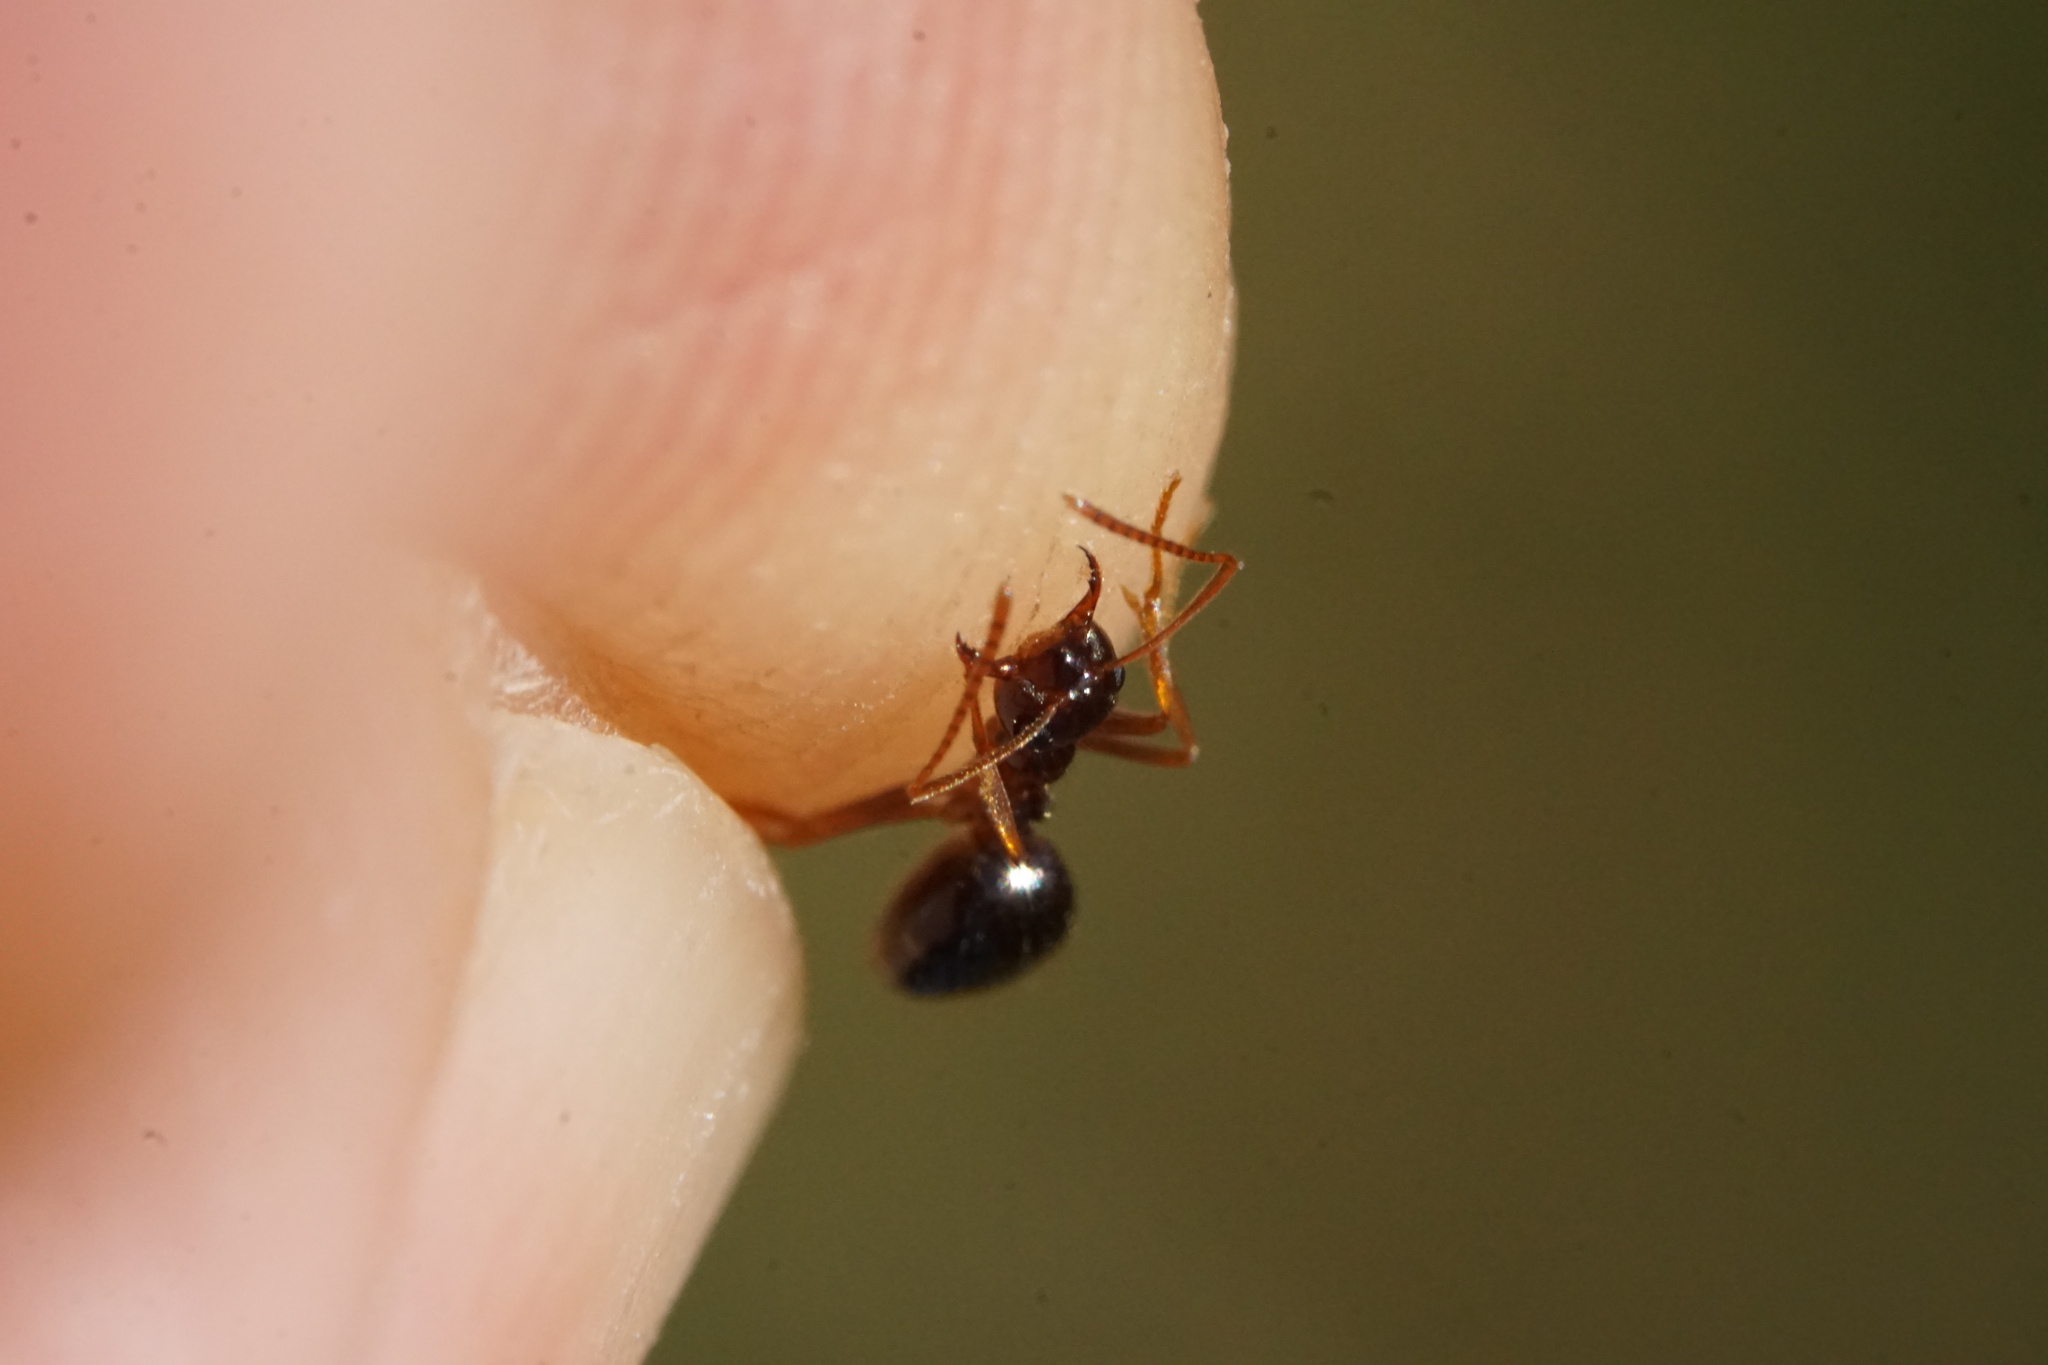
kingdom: Animalia
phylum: Arthropoda
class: Insecta
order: Hymenoptera
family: Formicidae
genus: Prenolepis
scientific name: Prenolepis imparis
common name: Small honey ant
